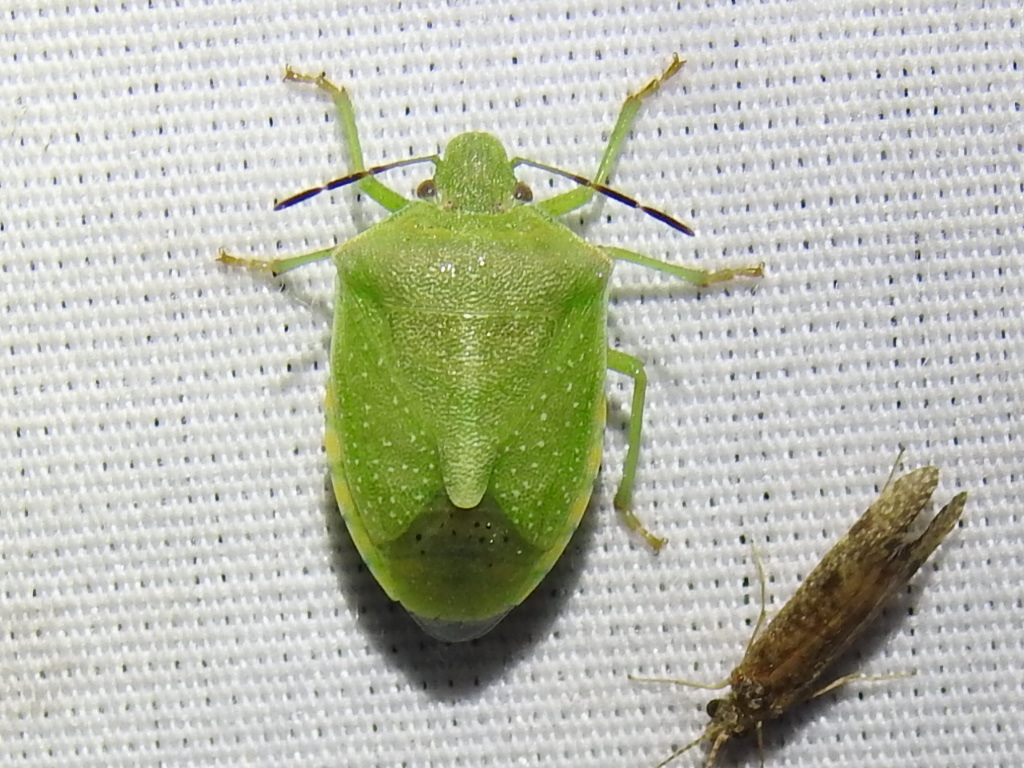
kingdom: Animalia
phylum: Arthropoda
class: Insecta
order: Hemiptera
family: Pentatomidae
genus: Thyanta
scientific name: Thyanta custator
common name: Stink bug
